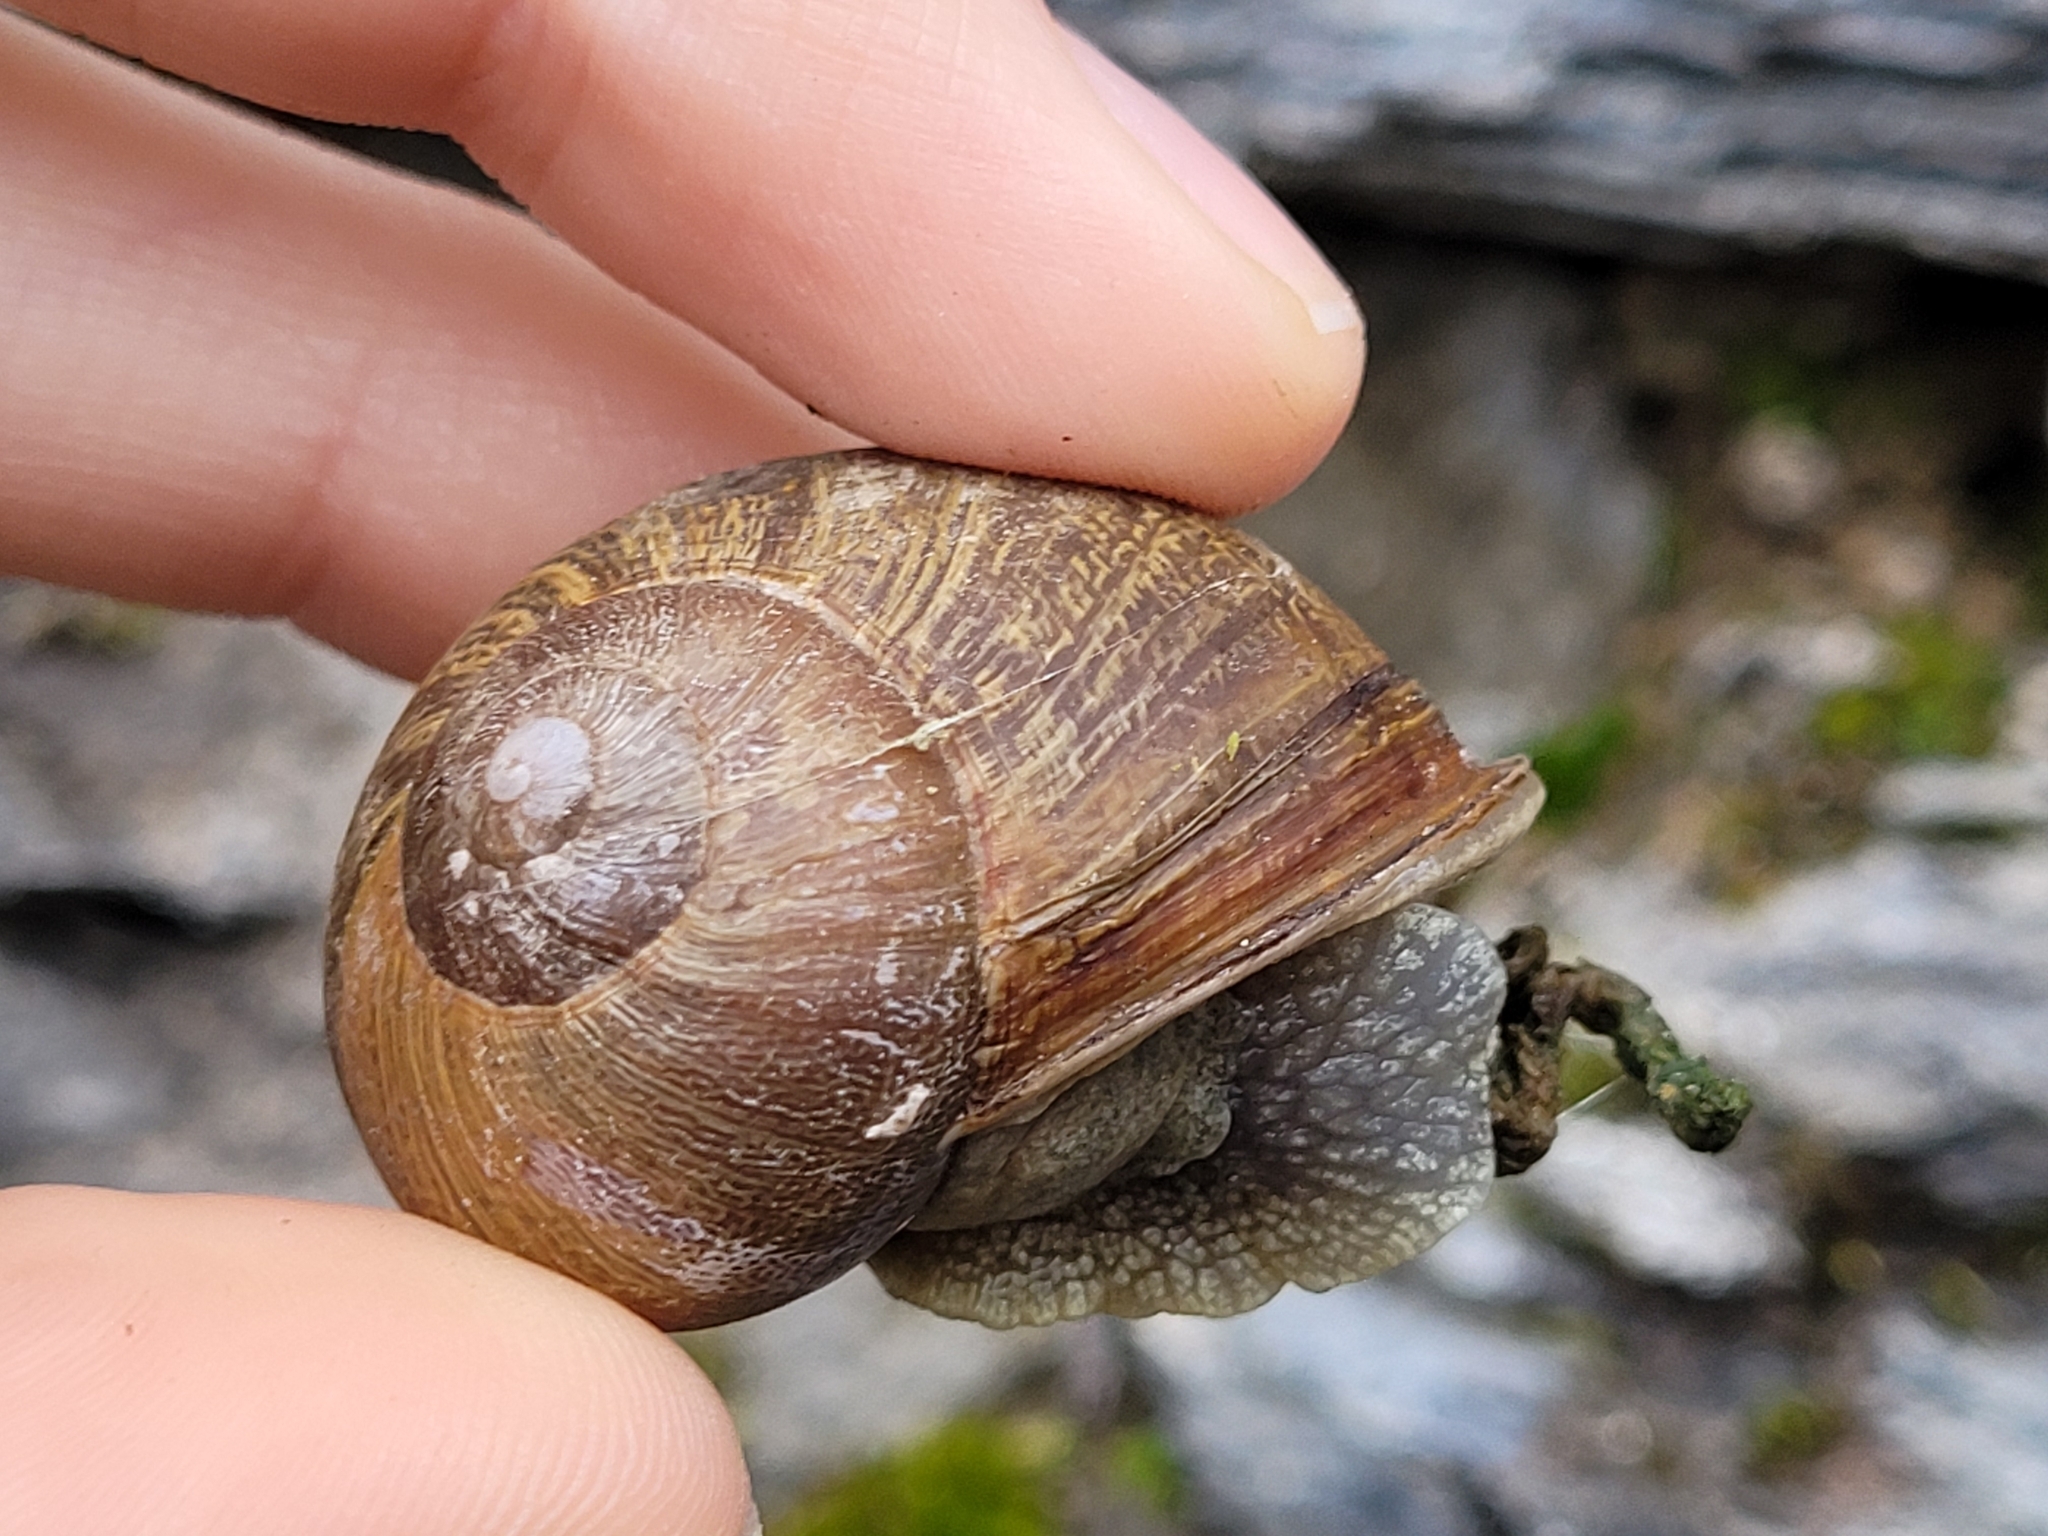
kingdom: Animalia
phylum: Mollusca
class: Gastropoda
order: Stylommatophora
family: Helicidae
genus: Cornu
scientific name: Cornu aspersum
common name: Brown garden snail
